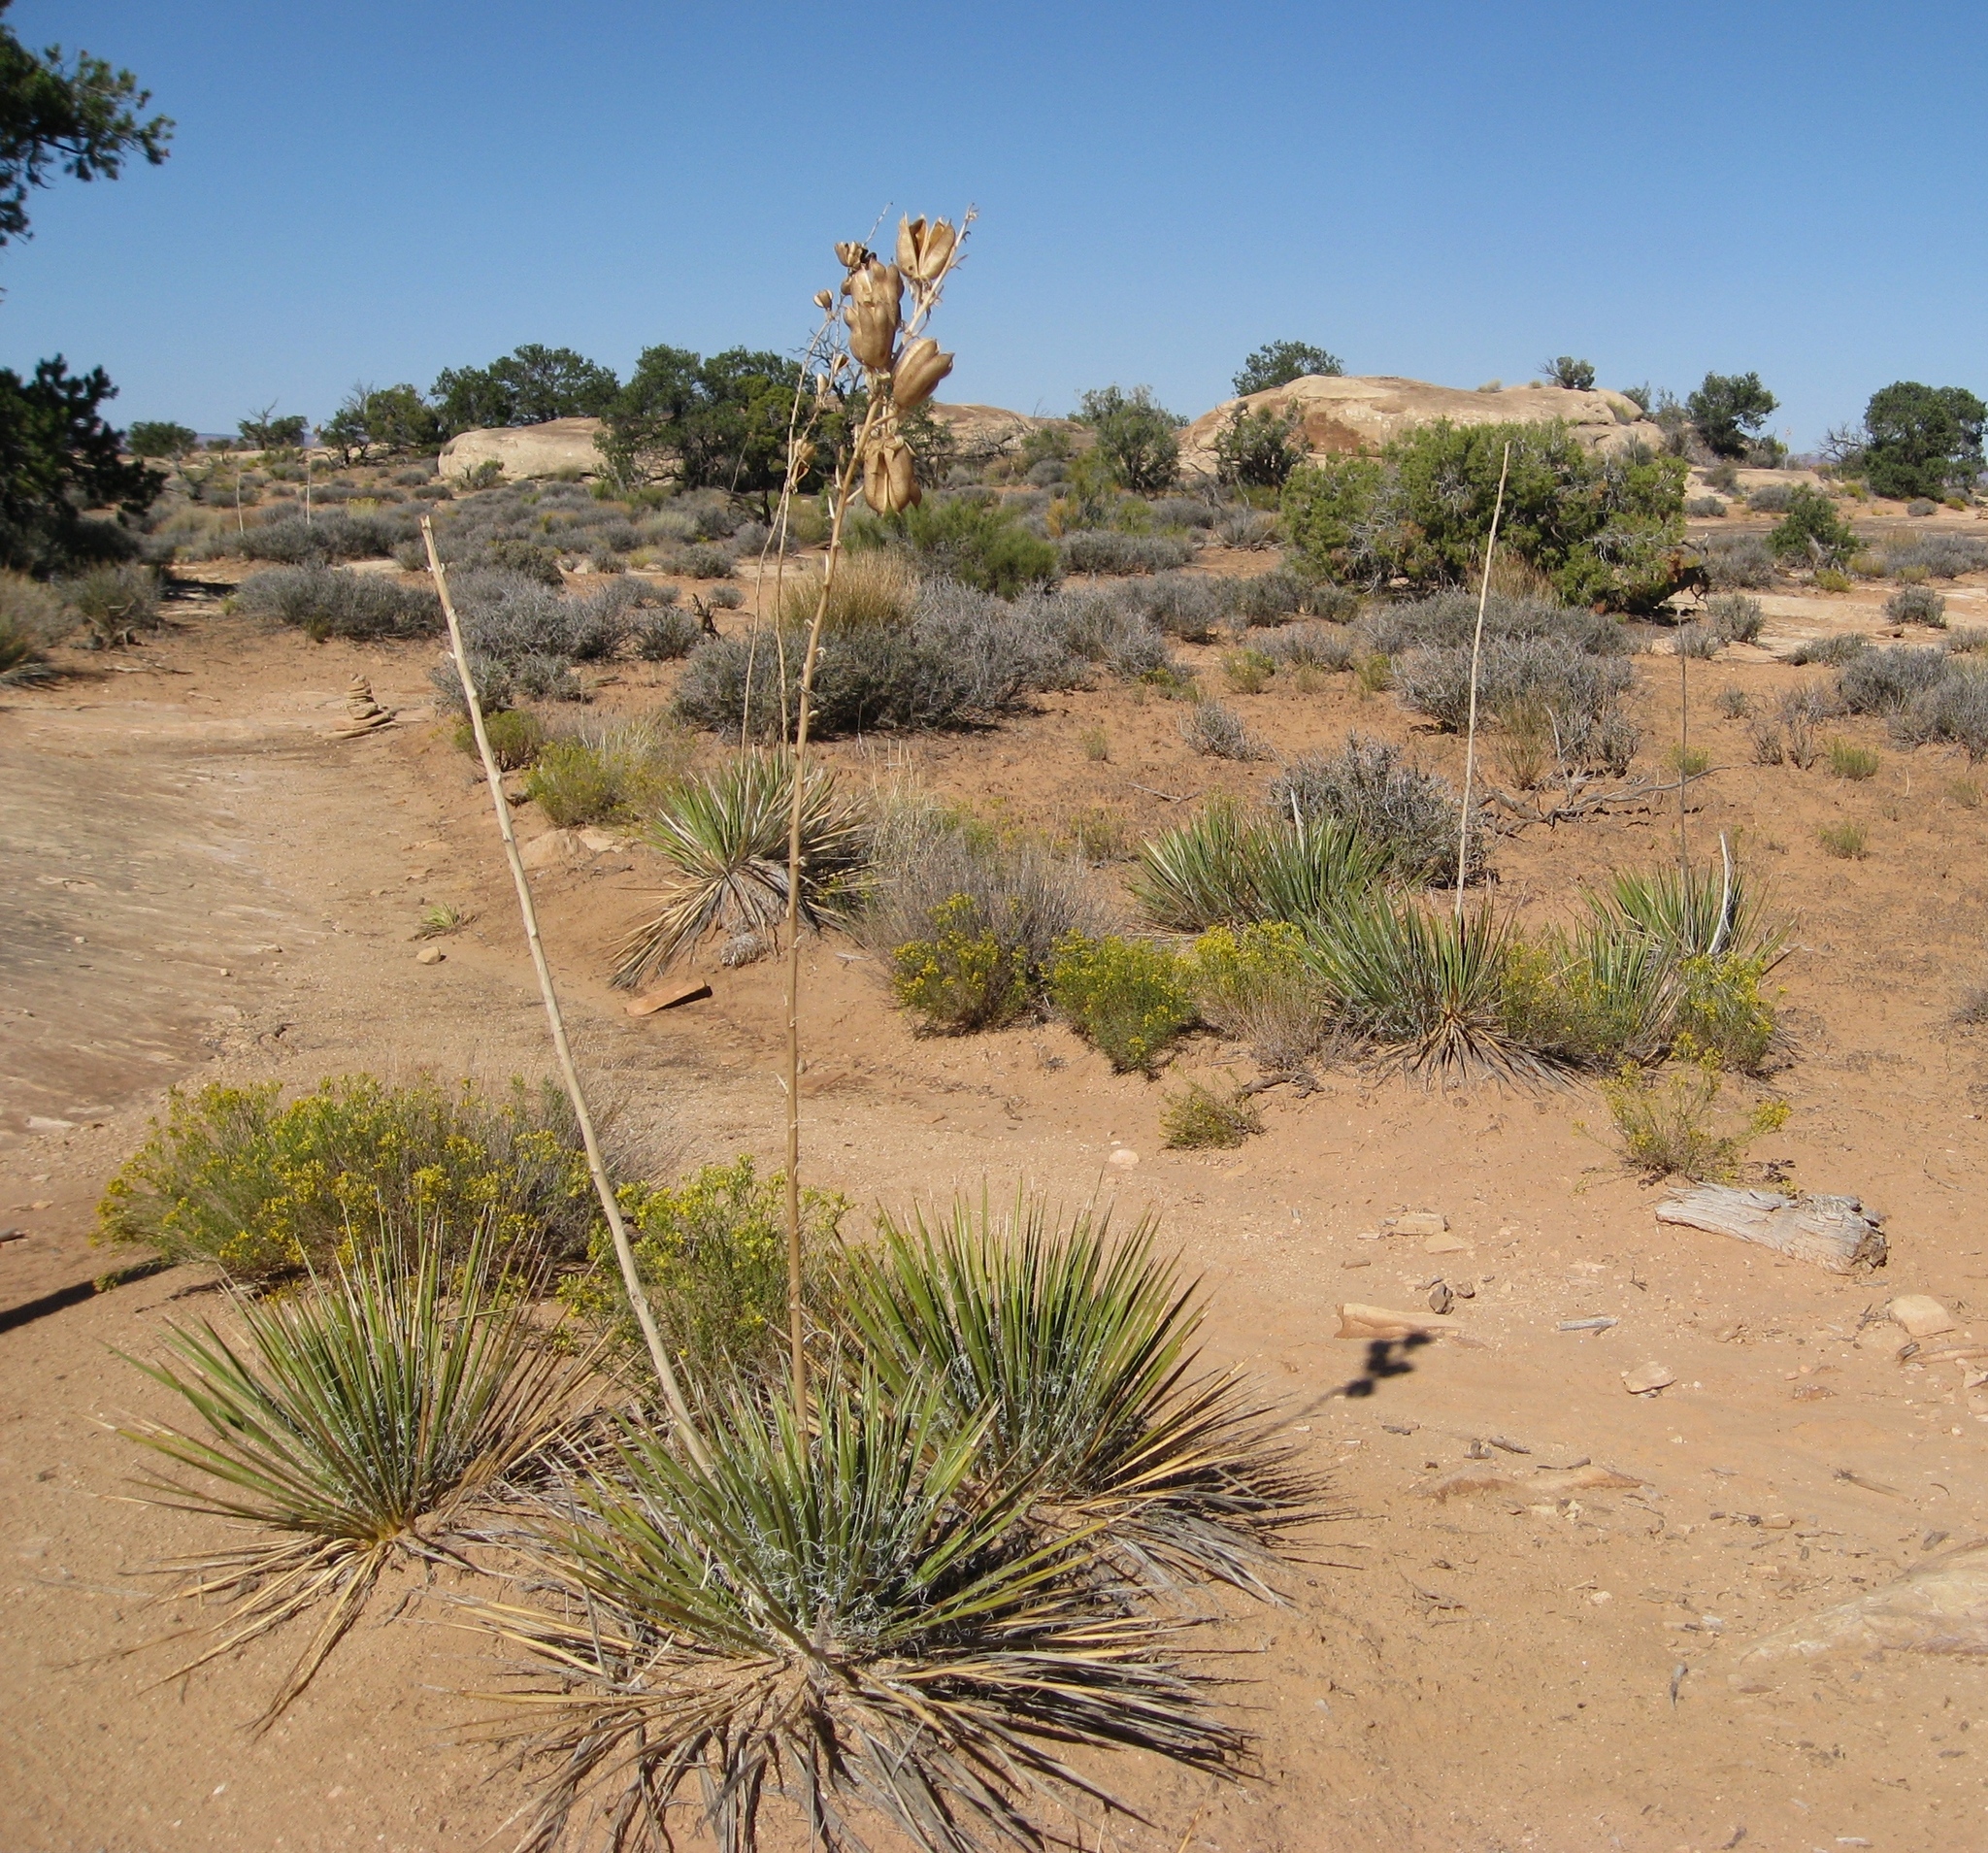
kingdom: Plantae
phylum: Tracheophyta
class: Liliopsida
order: Asparagales
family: Asparagaceae
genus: Yucca
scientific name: Yucca angustissima
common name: Narrowleaf yucca
